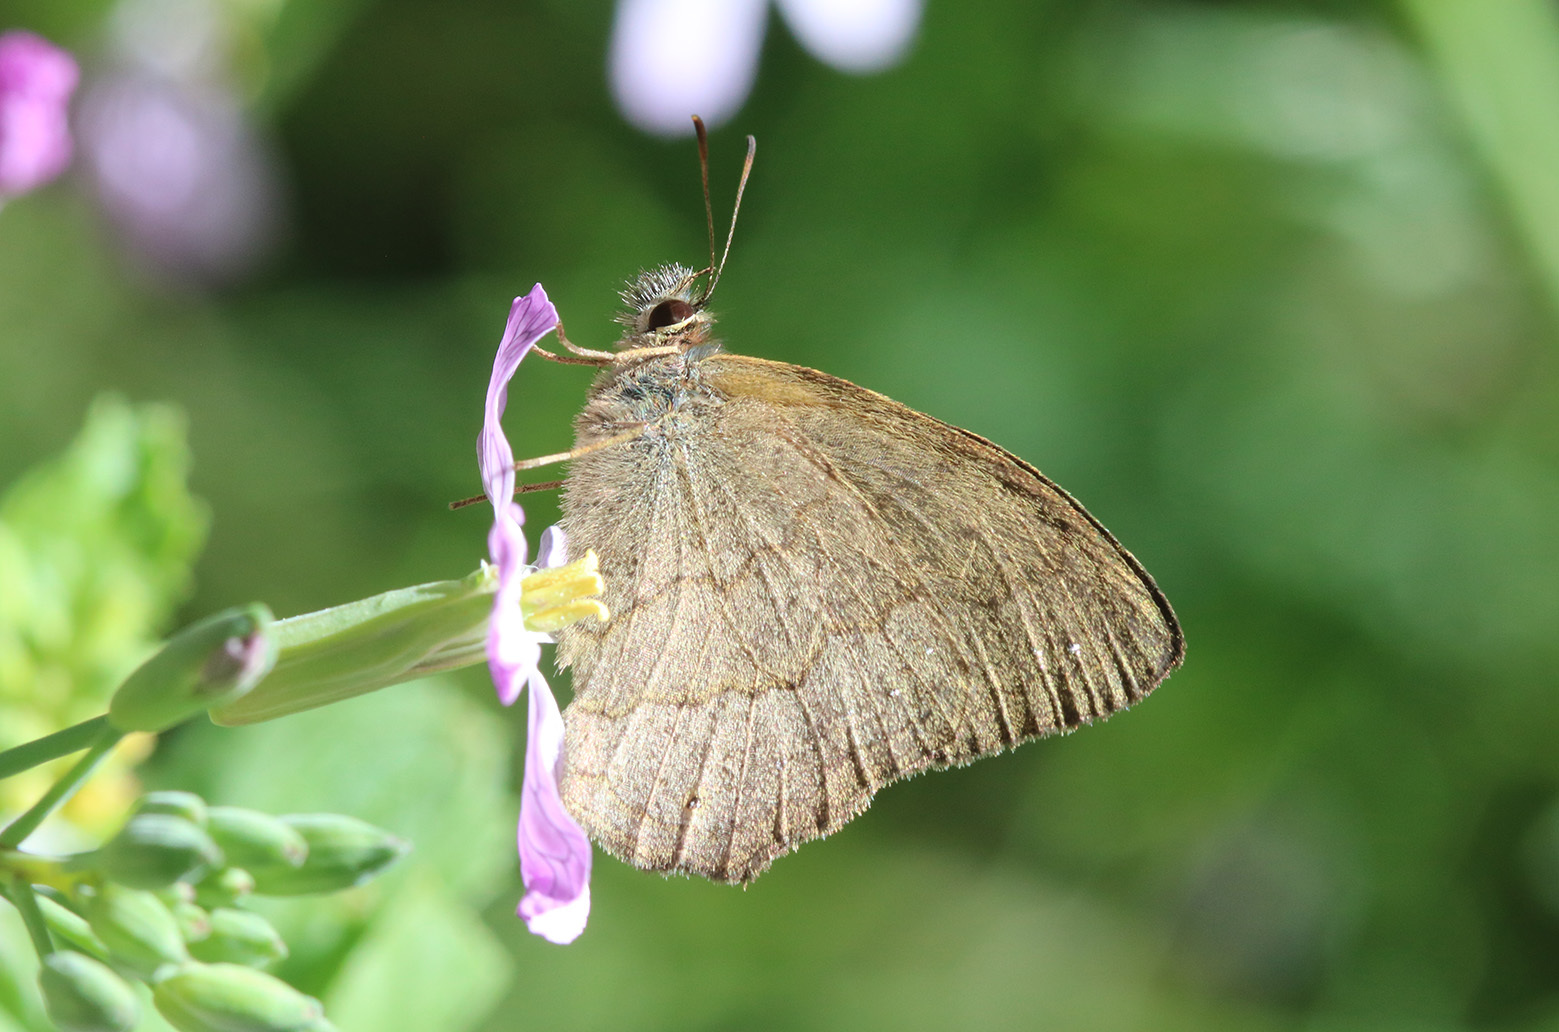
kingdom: Animalia
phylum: Arthropoda
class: Insecta
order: Lepidoptera
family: Nymphalidae
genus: Euptychia
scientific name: Euptychia
